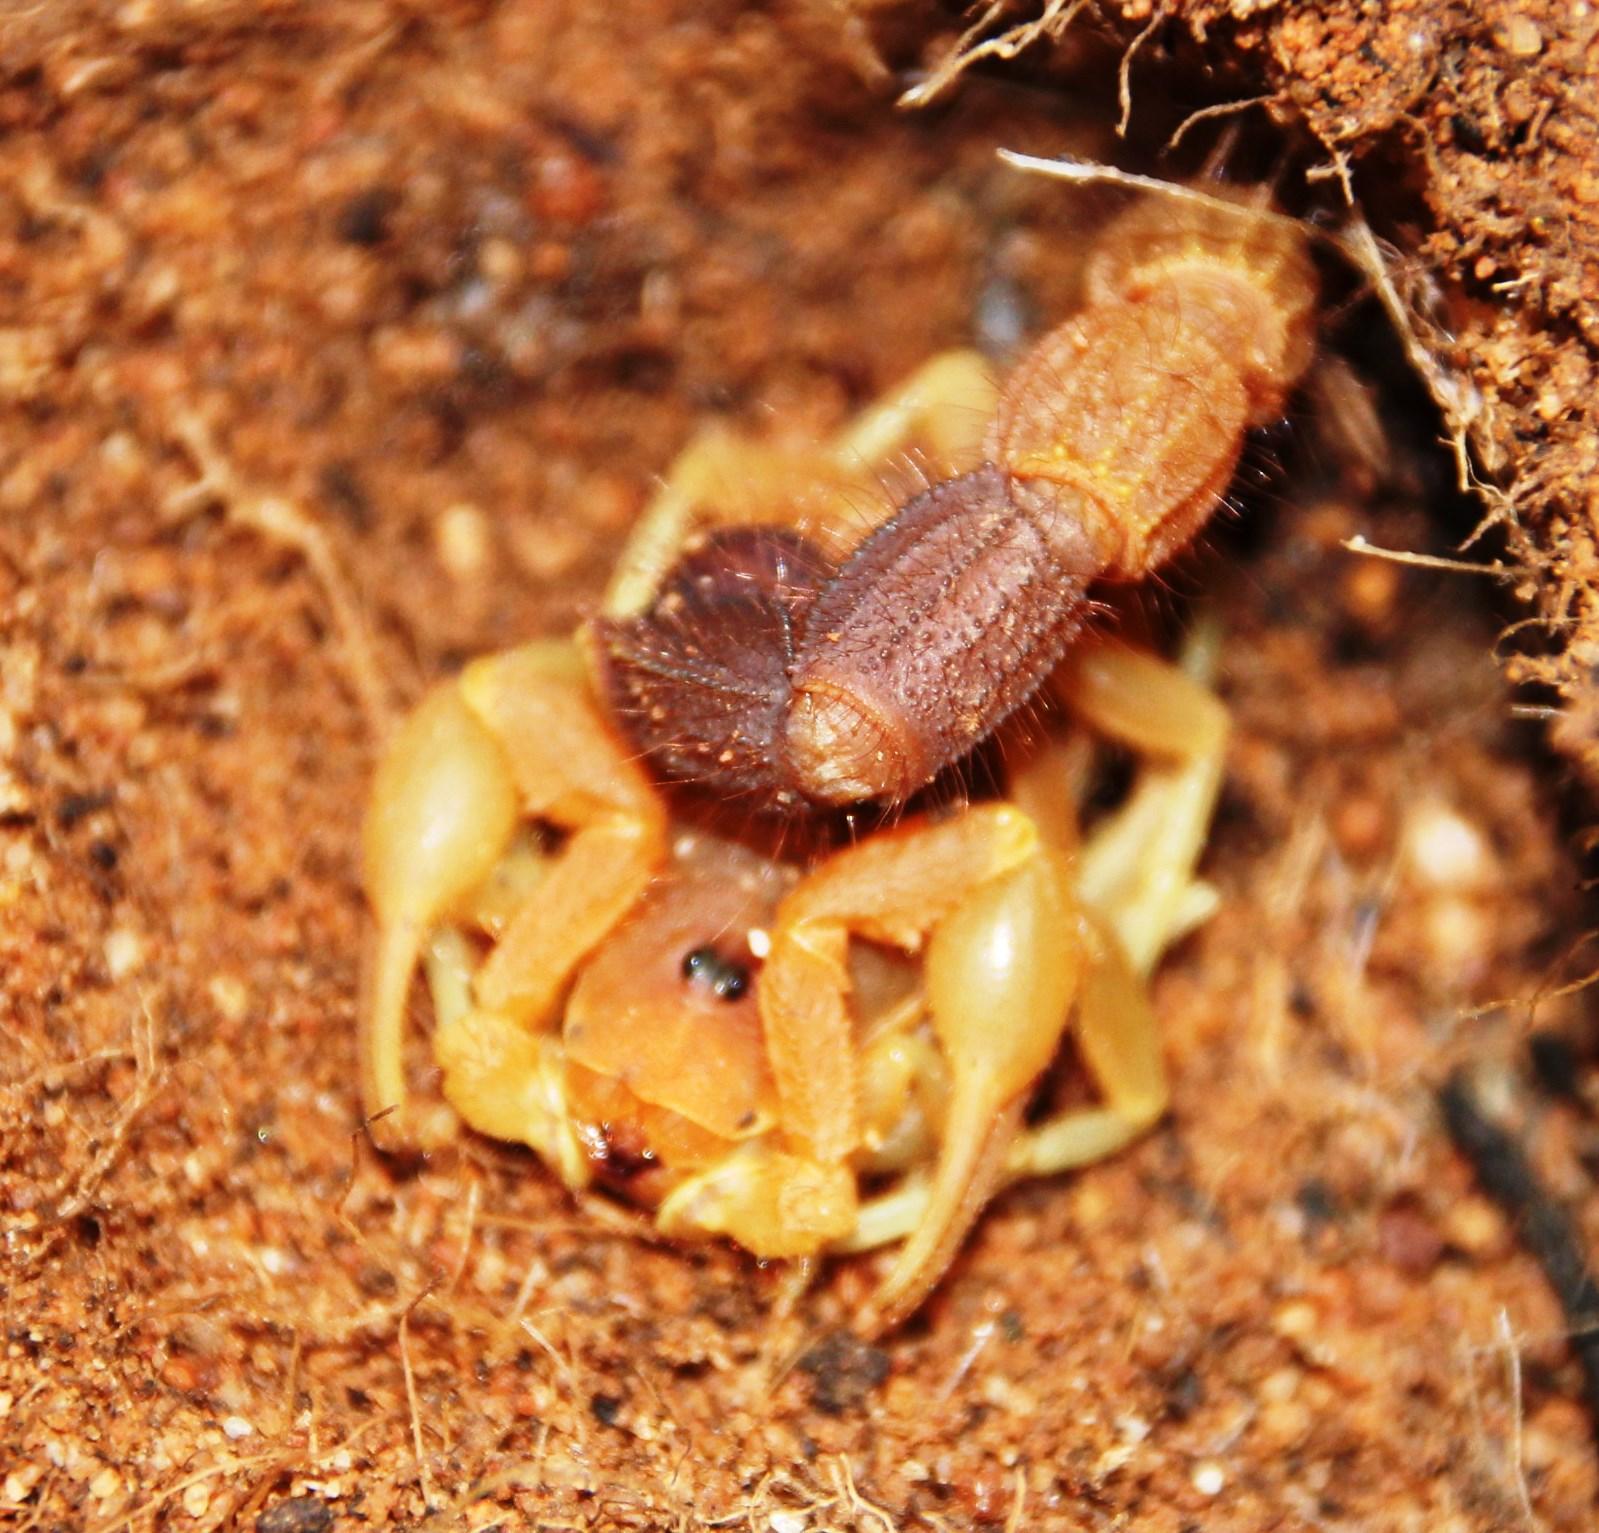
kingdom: Animalia
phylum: Arthropoda
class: Arachnida
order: Scorpiones
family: Buthidae
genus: Parabuthus
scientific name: Parabuthus capensis
